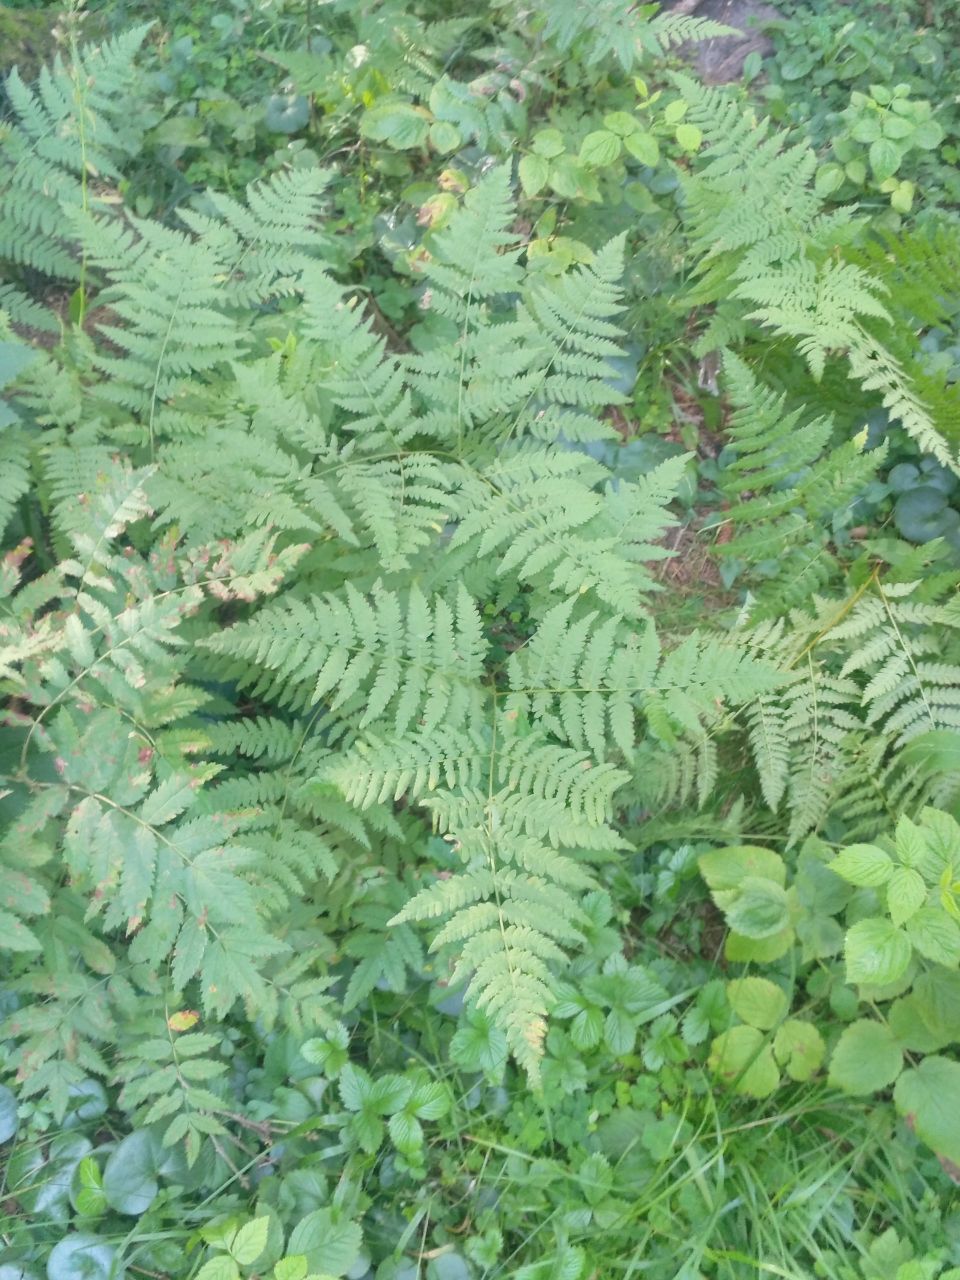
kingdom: Plantae
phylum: Tracheophyta
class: Polypodiopsida
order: Polypodiales
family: Dennstaedtiaceae
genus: Pteridium
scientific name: Pteridium aquilinum
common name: Bracken
